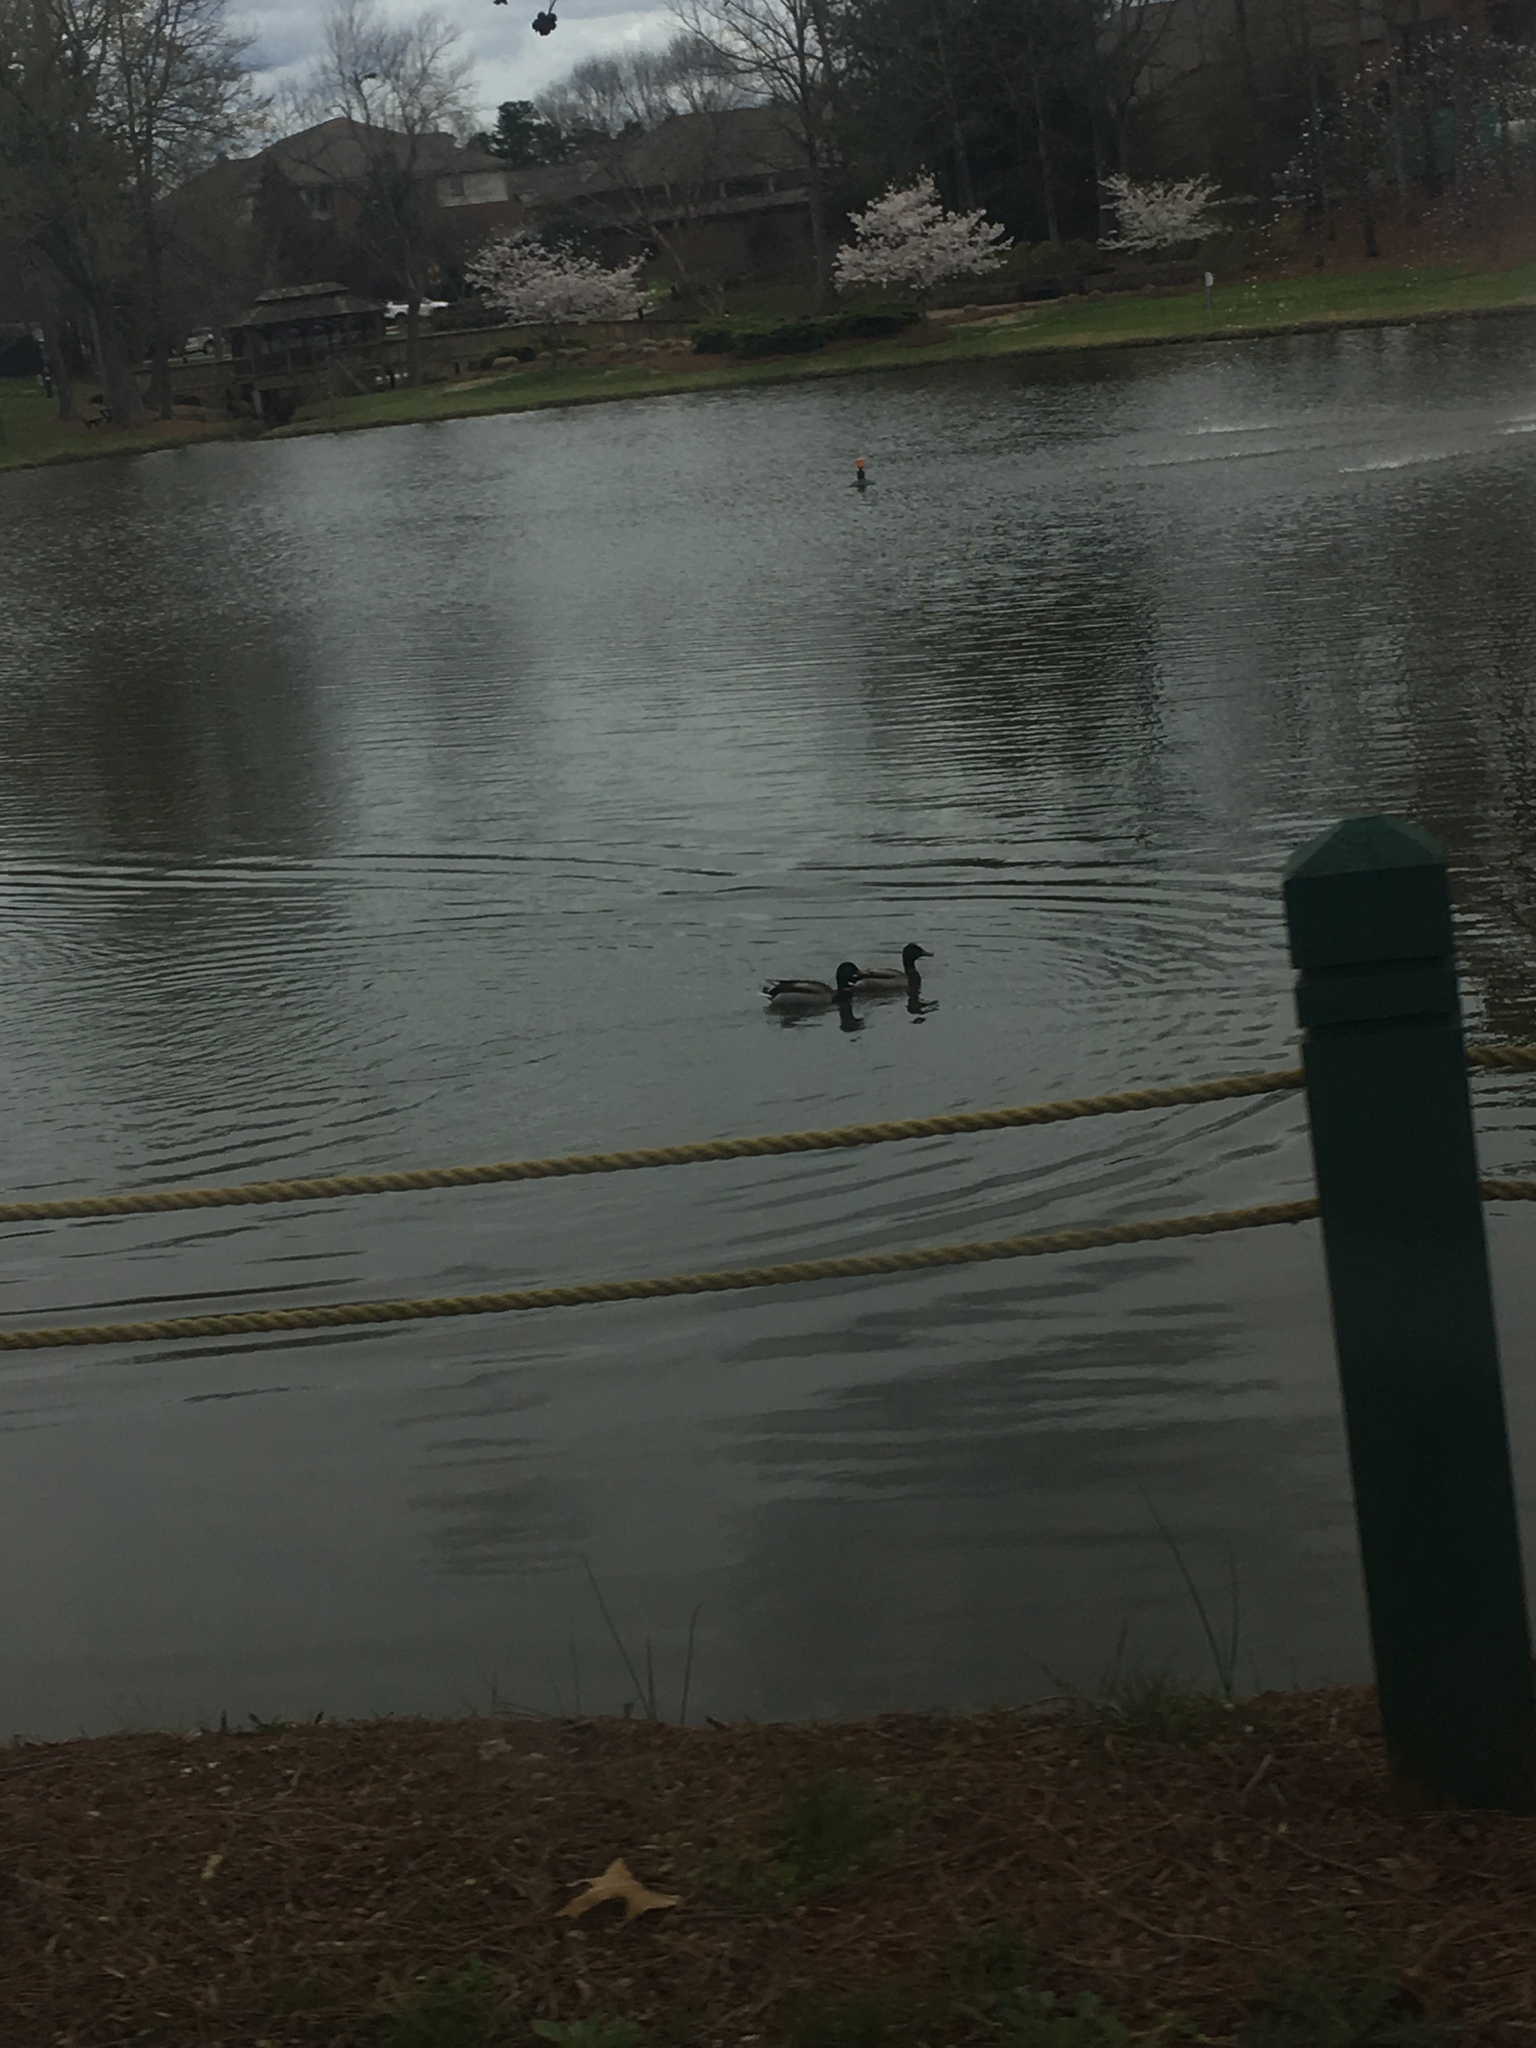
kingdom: Animalia
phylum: Chordata
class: Aves
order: Anseriformes
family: Anatidae
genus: Anas
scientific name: Anas platyrhynchos
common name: Mallard
